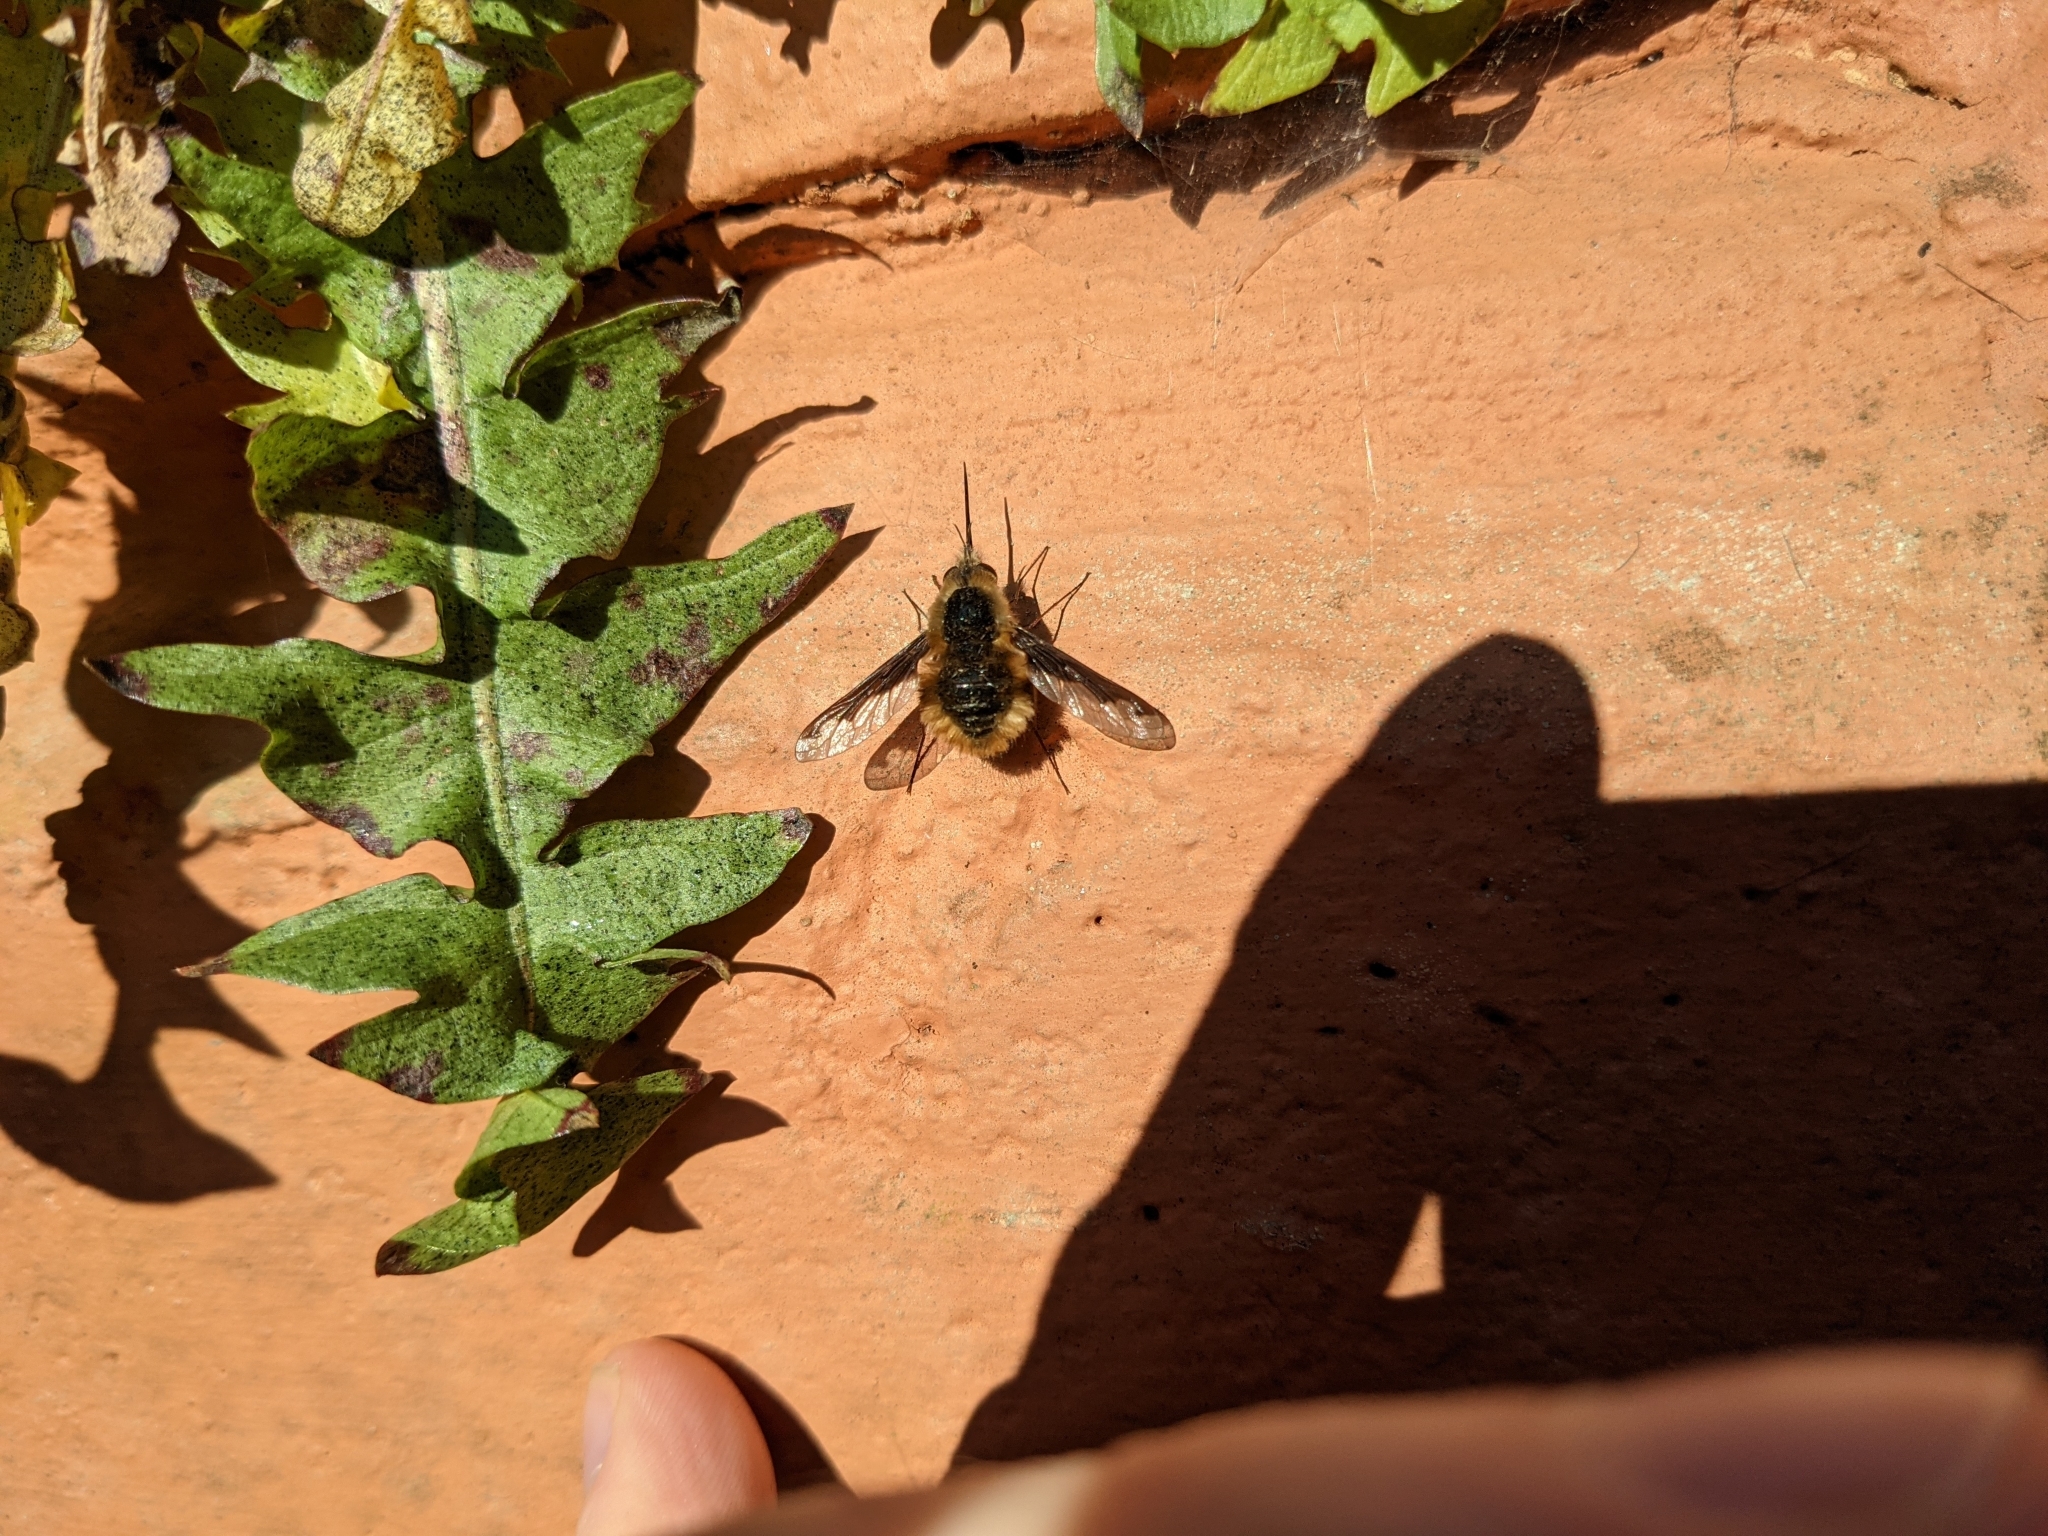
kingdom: Animalia
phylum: Arthropoda
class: Insecta
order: Diptera
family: Bombyliidae
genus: Bombylius
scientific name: Bombylius major
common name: Bee fly
